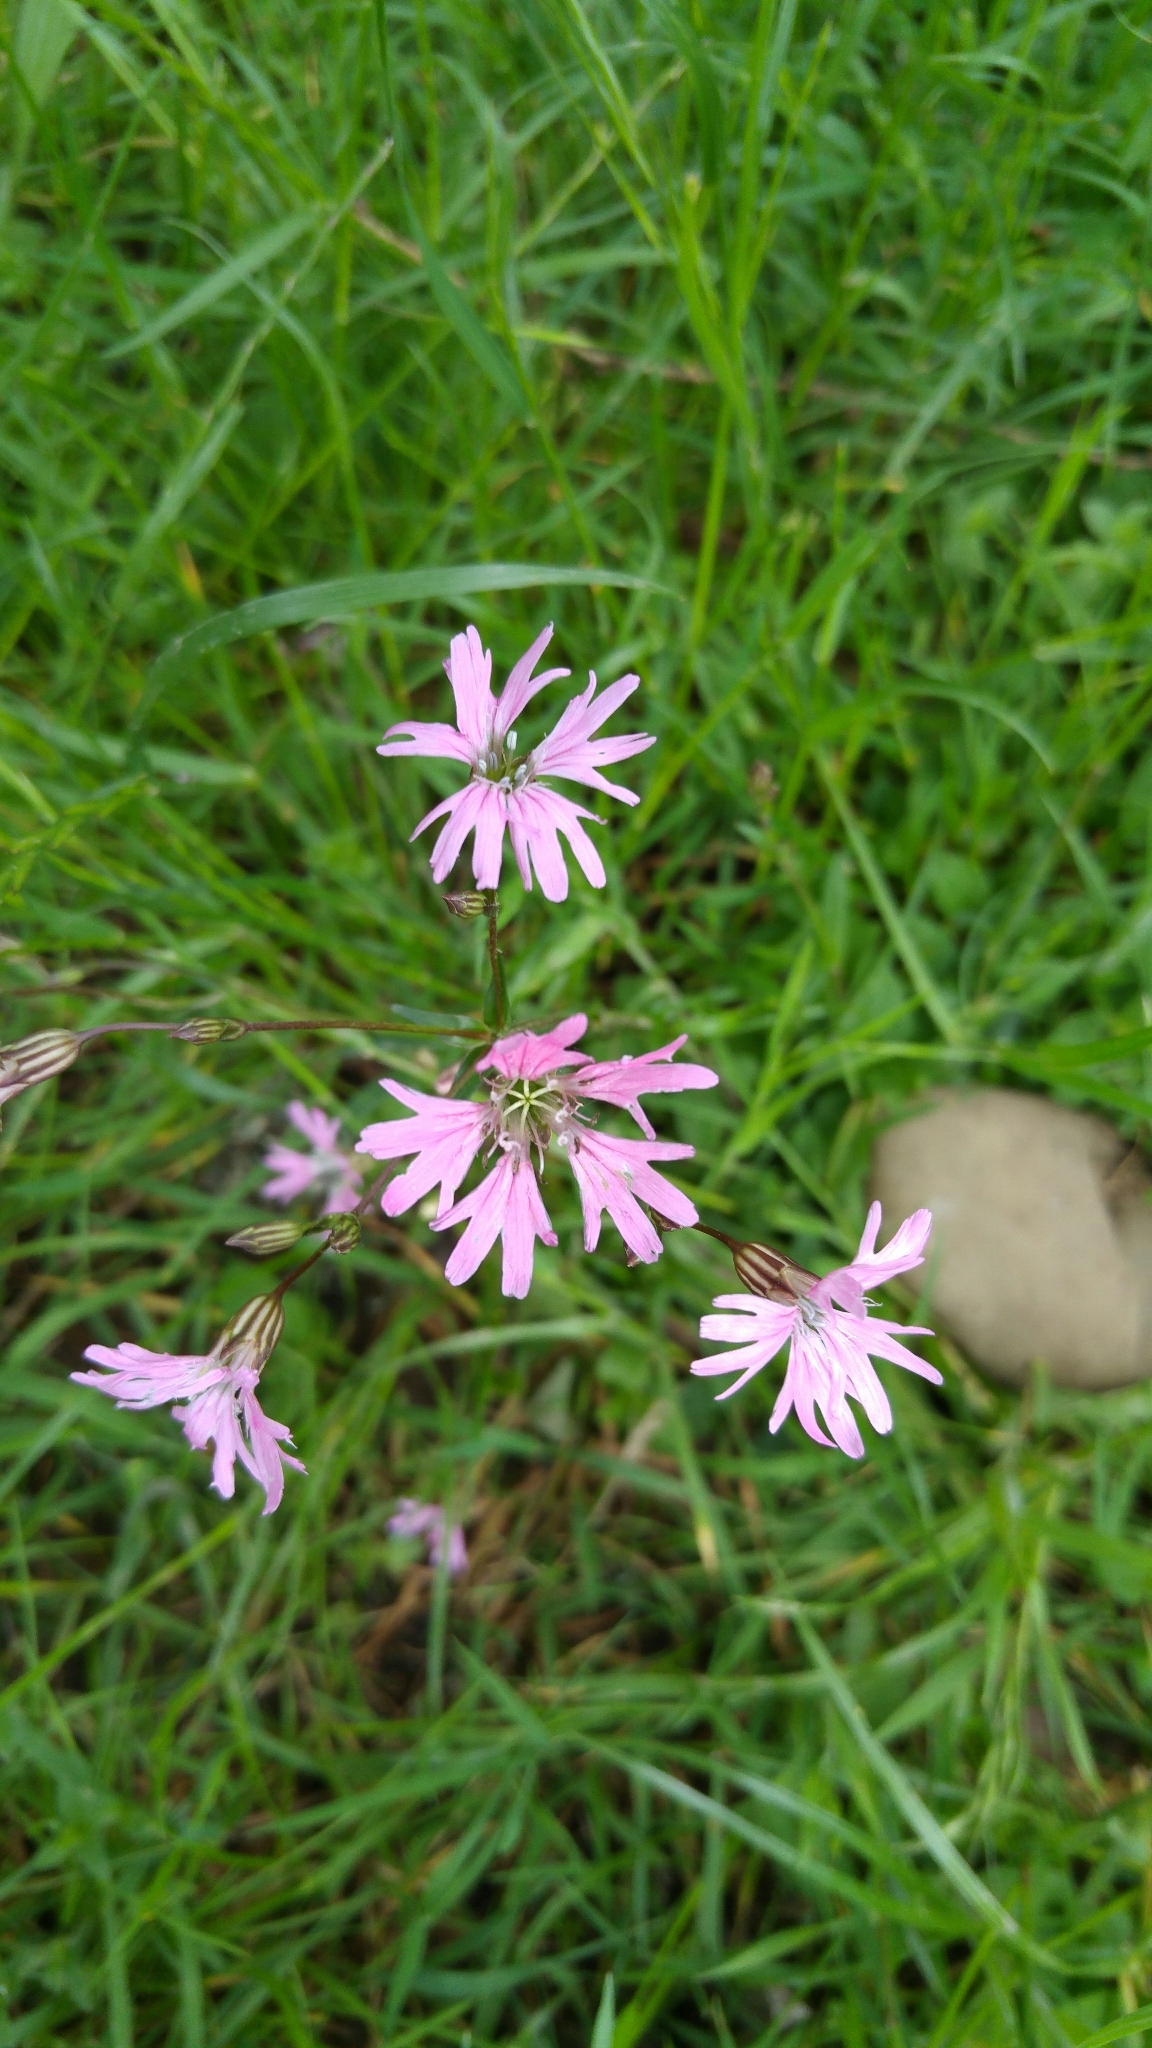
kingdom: Plantae
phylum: Tracheophyta
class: Magnoliopsida
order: Caryophyllales
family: Caryophyllaceae
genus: Silene
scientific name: Silene flos-cuculi
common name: Ragged-robin
